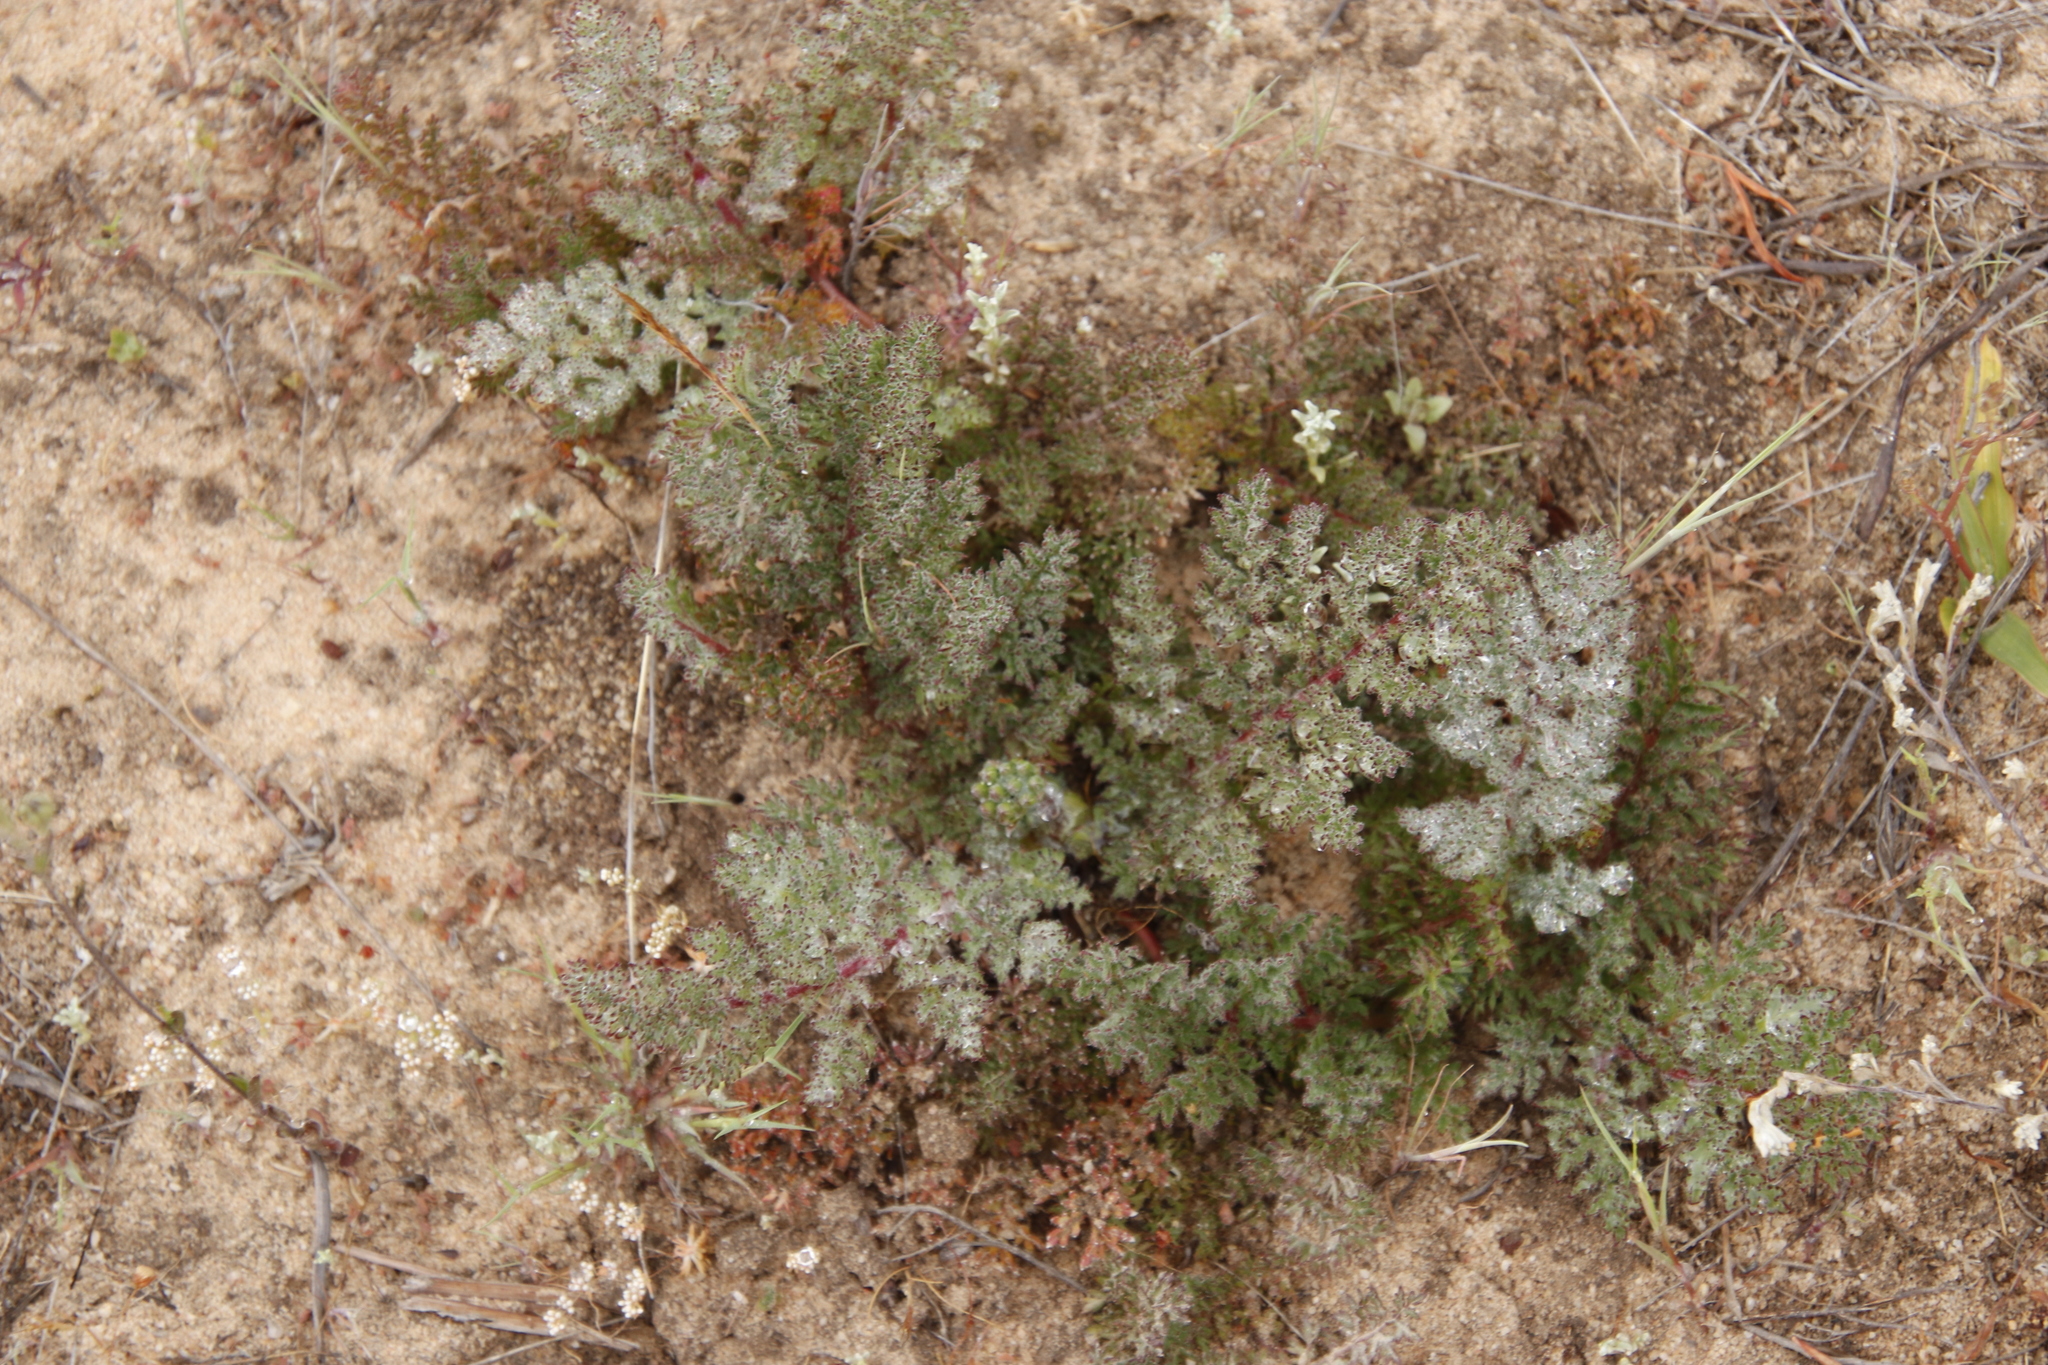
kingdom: Plantae
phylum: Tracheophyta
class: Magnoliopsida
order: Geraniales
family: Geraniaceae
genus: Pelargonium
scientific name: Pelargonium triste
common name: Night-scent pelargonium
